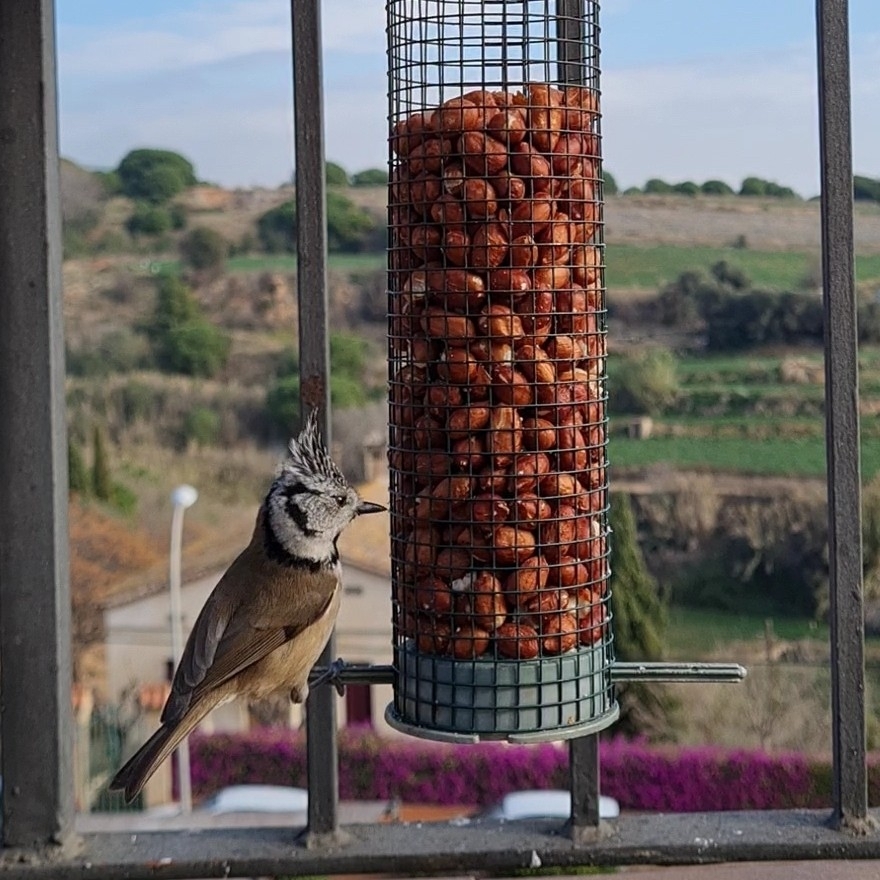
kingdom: Animalia
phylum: Chordata
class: Aves
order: Passeriformes
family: Paridae
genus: Lophophanes
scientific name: Lophophanes cristatus
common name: European crested tit
